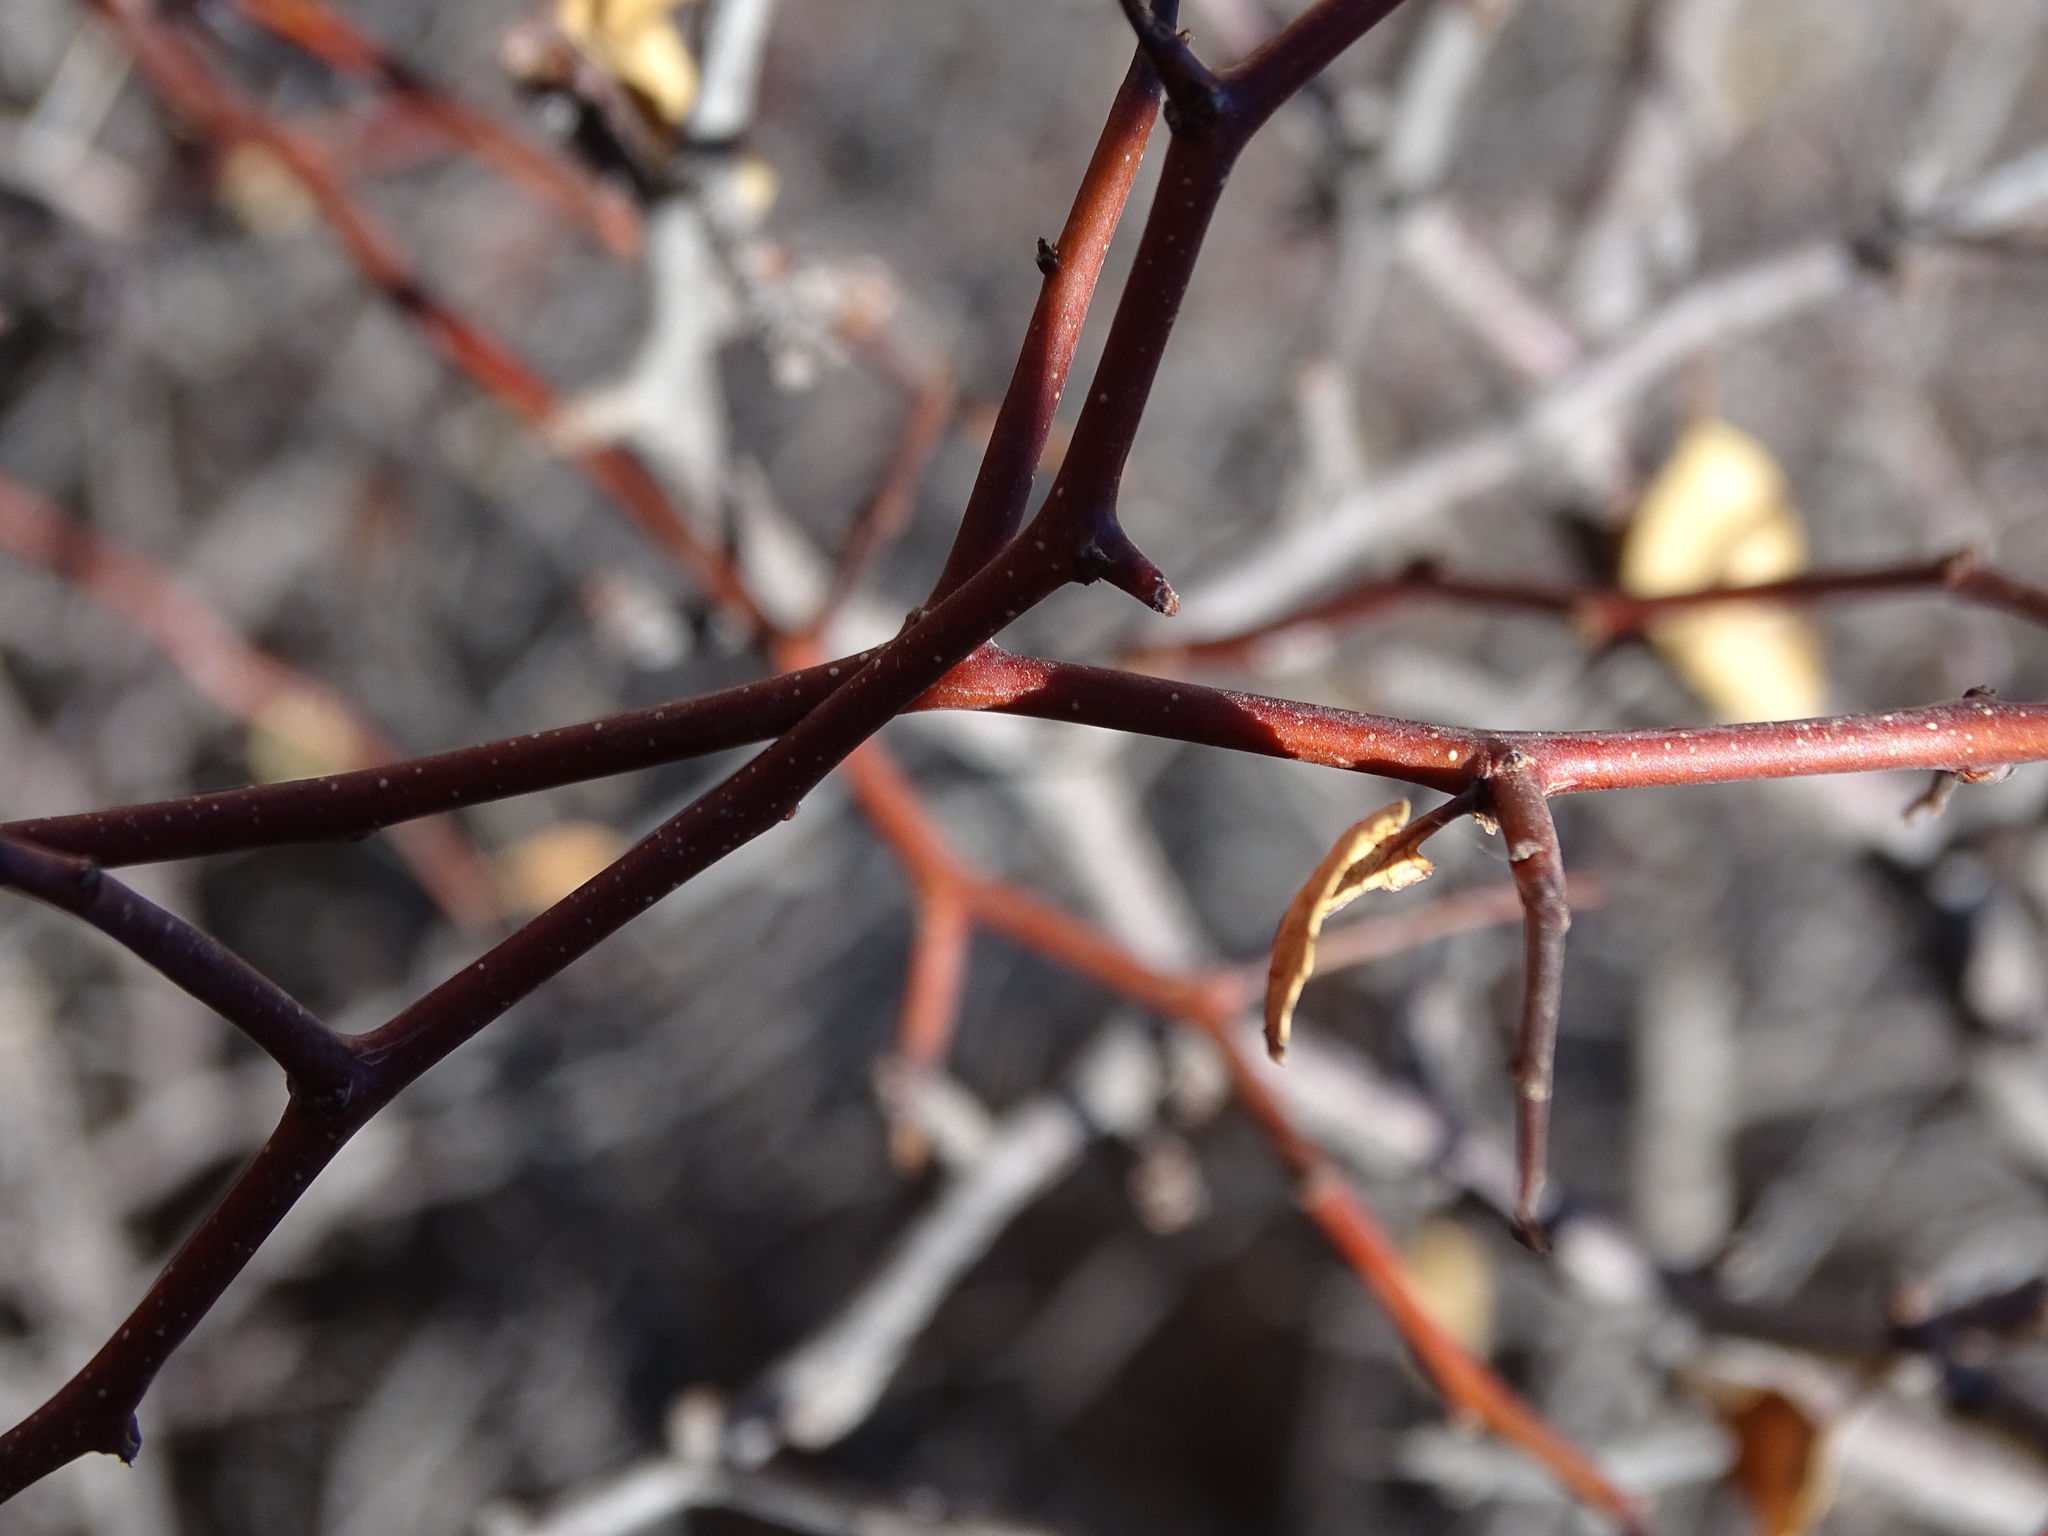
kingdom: Plantae
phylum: Tracheophyta
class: Magnoliopsida
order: Rosales
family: Rosaceae
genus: Prunus
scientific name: Prunus fremontii
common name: Desert apricot
